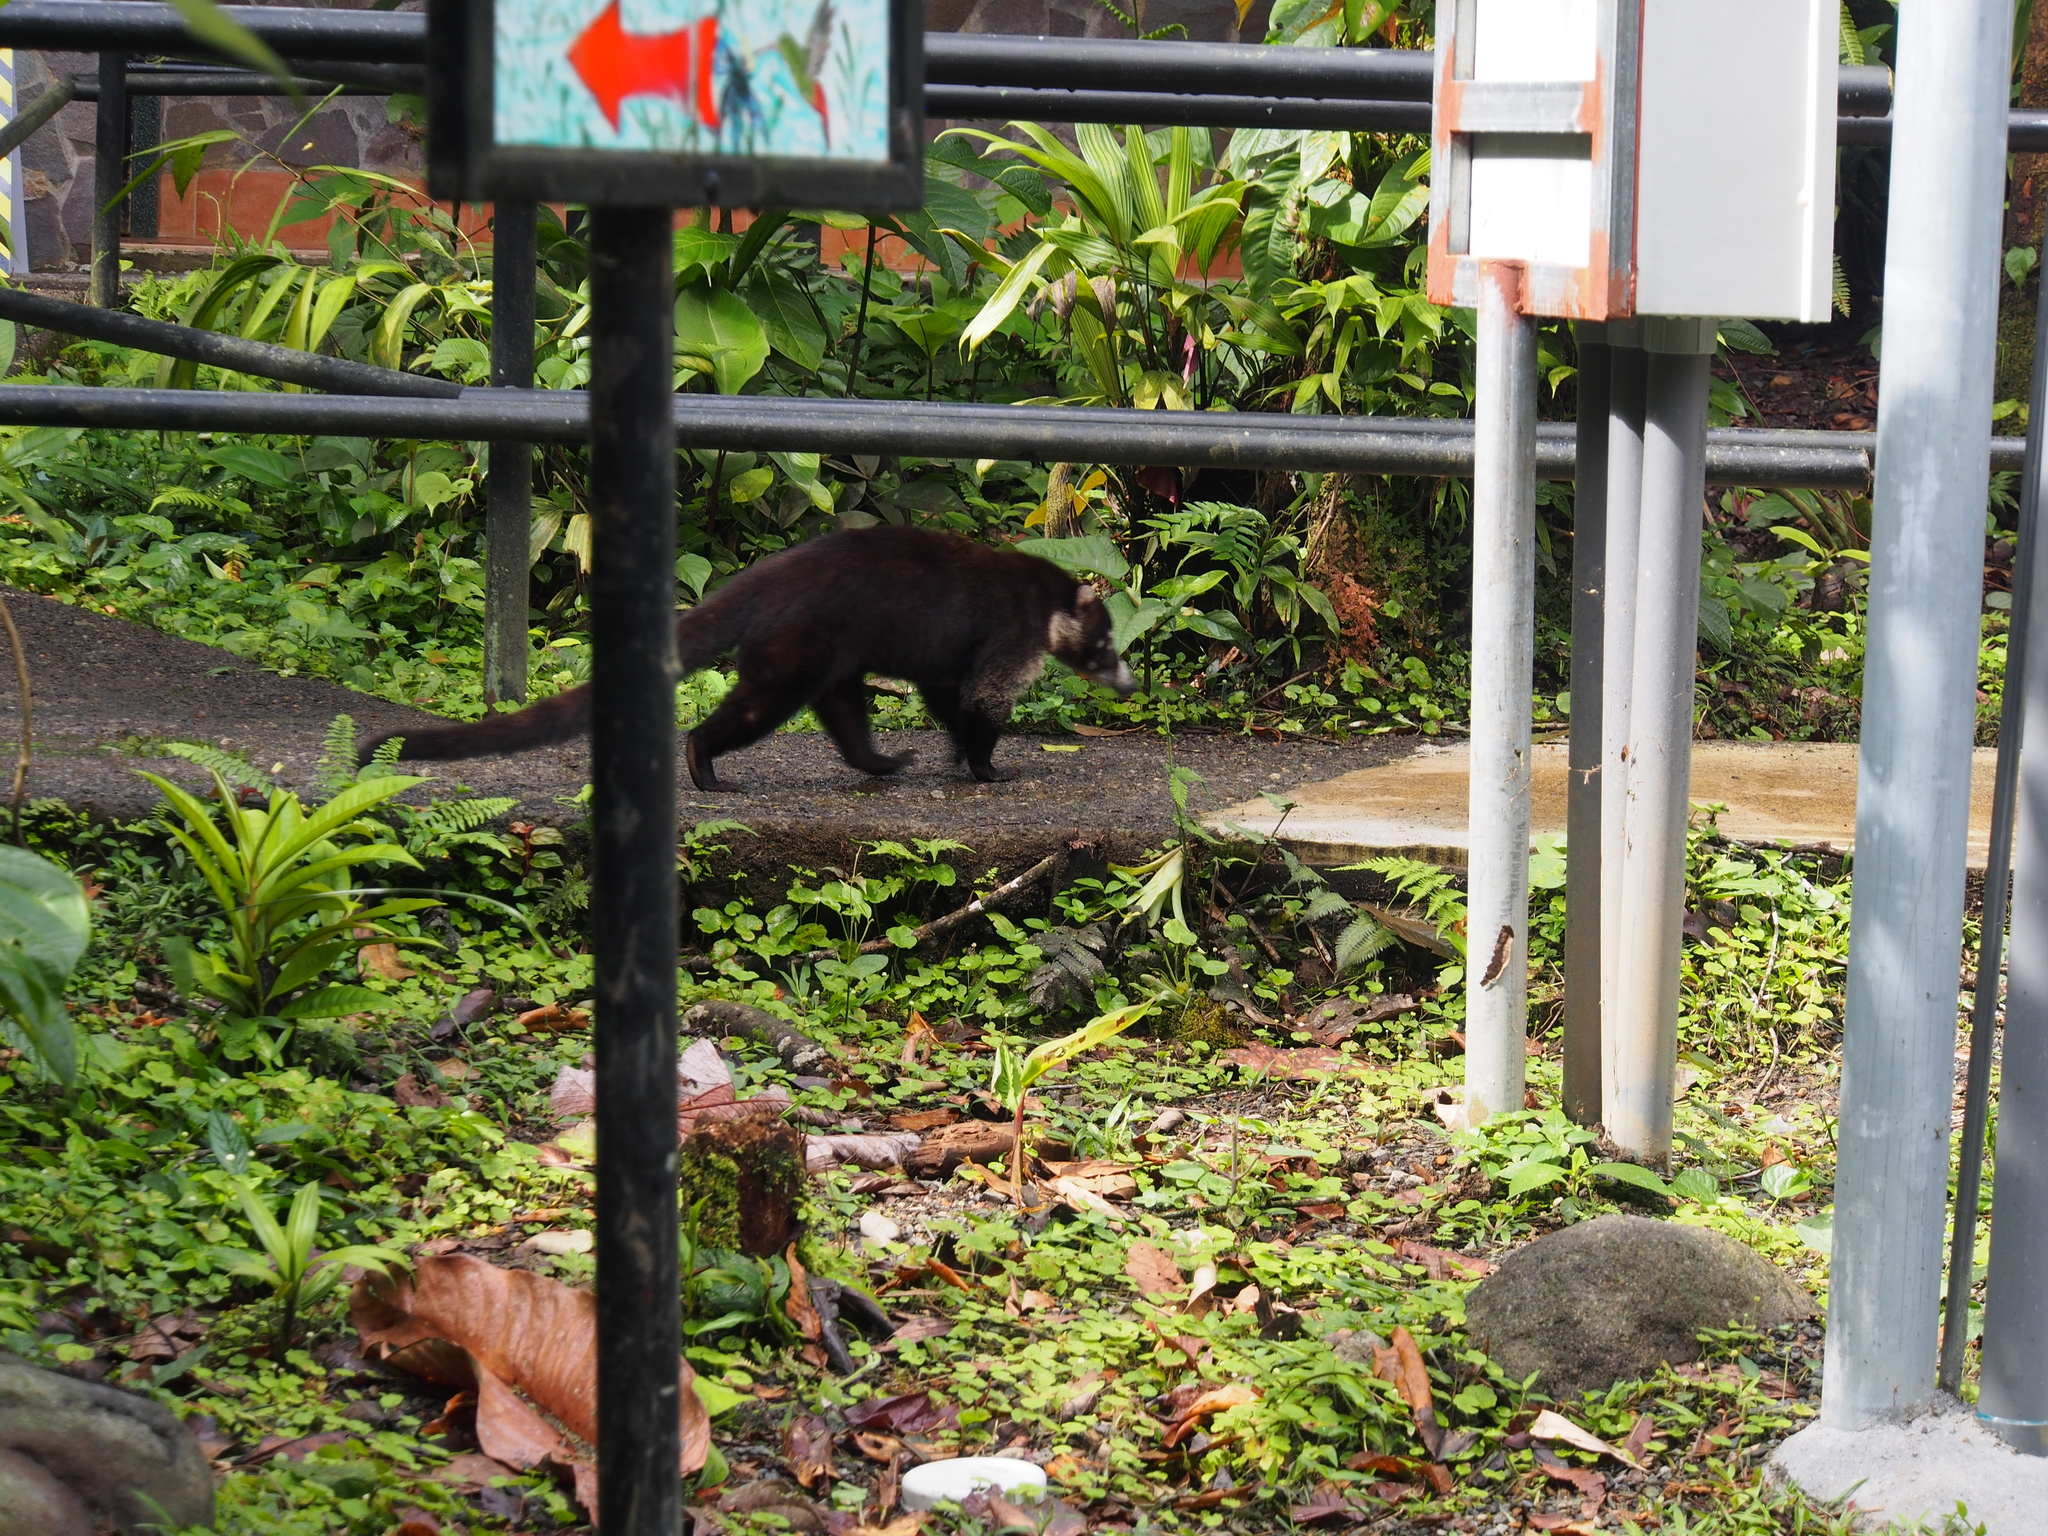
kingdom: Animalia
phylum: Chordata
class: Mammalia
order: Carnivora
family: Procyonidae
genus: Nasua
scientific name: Nasua narica
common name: White-nosed coati
